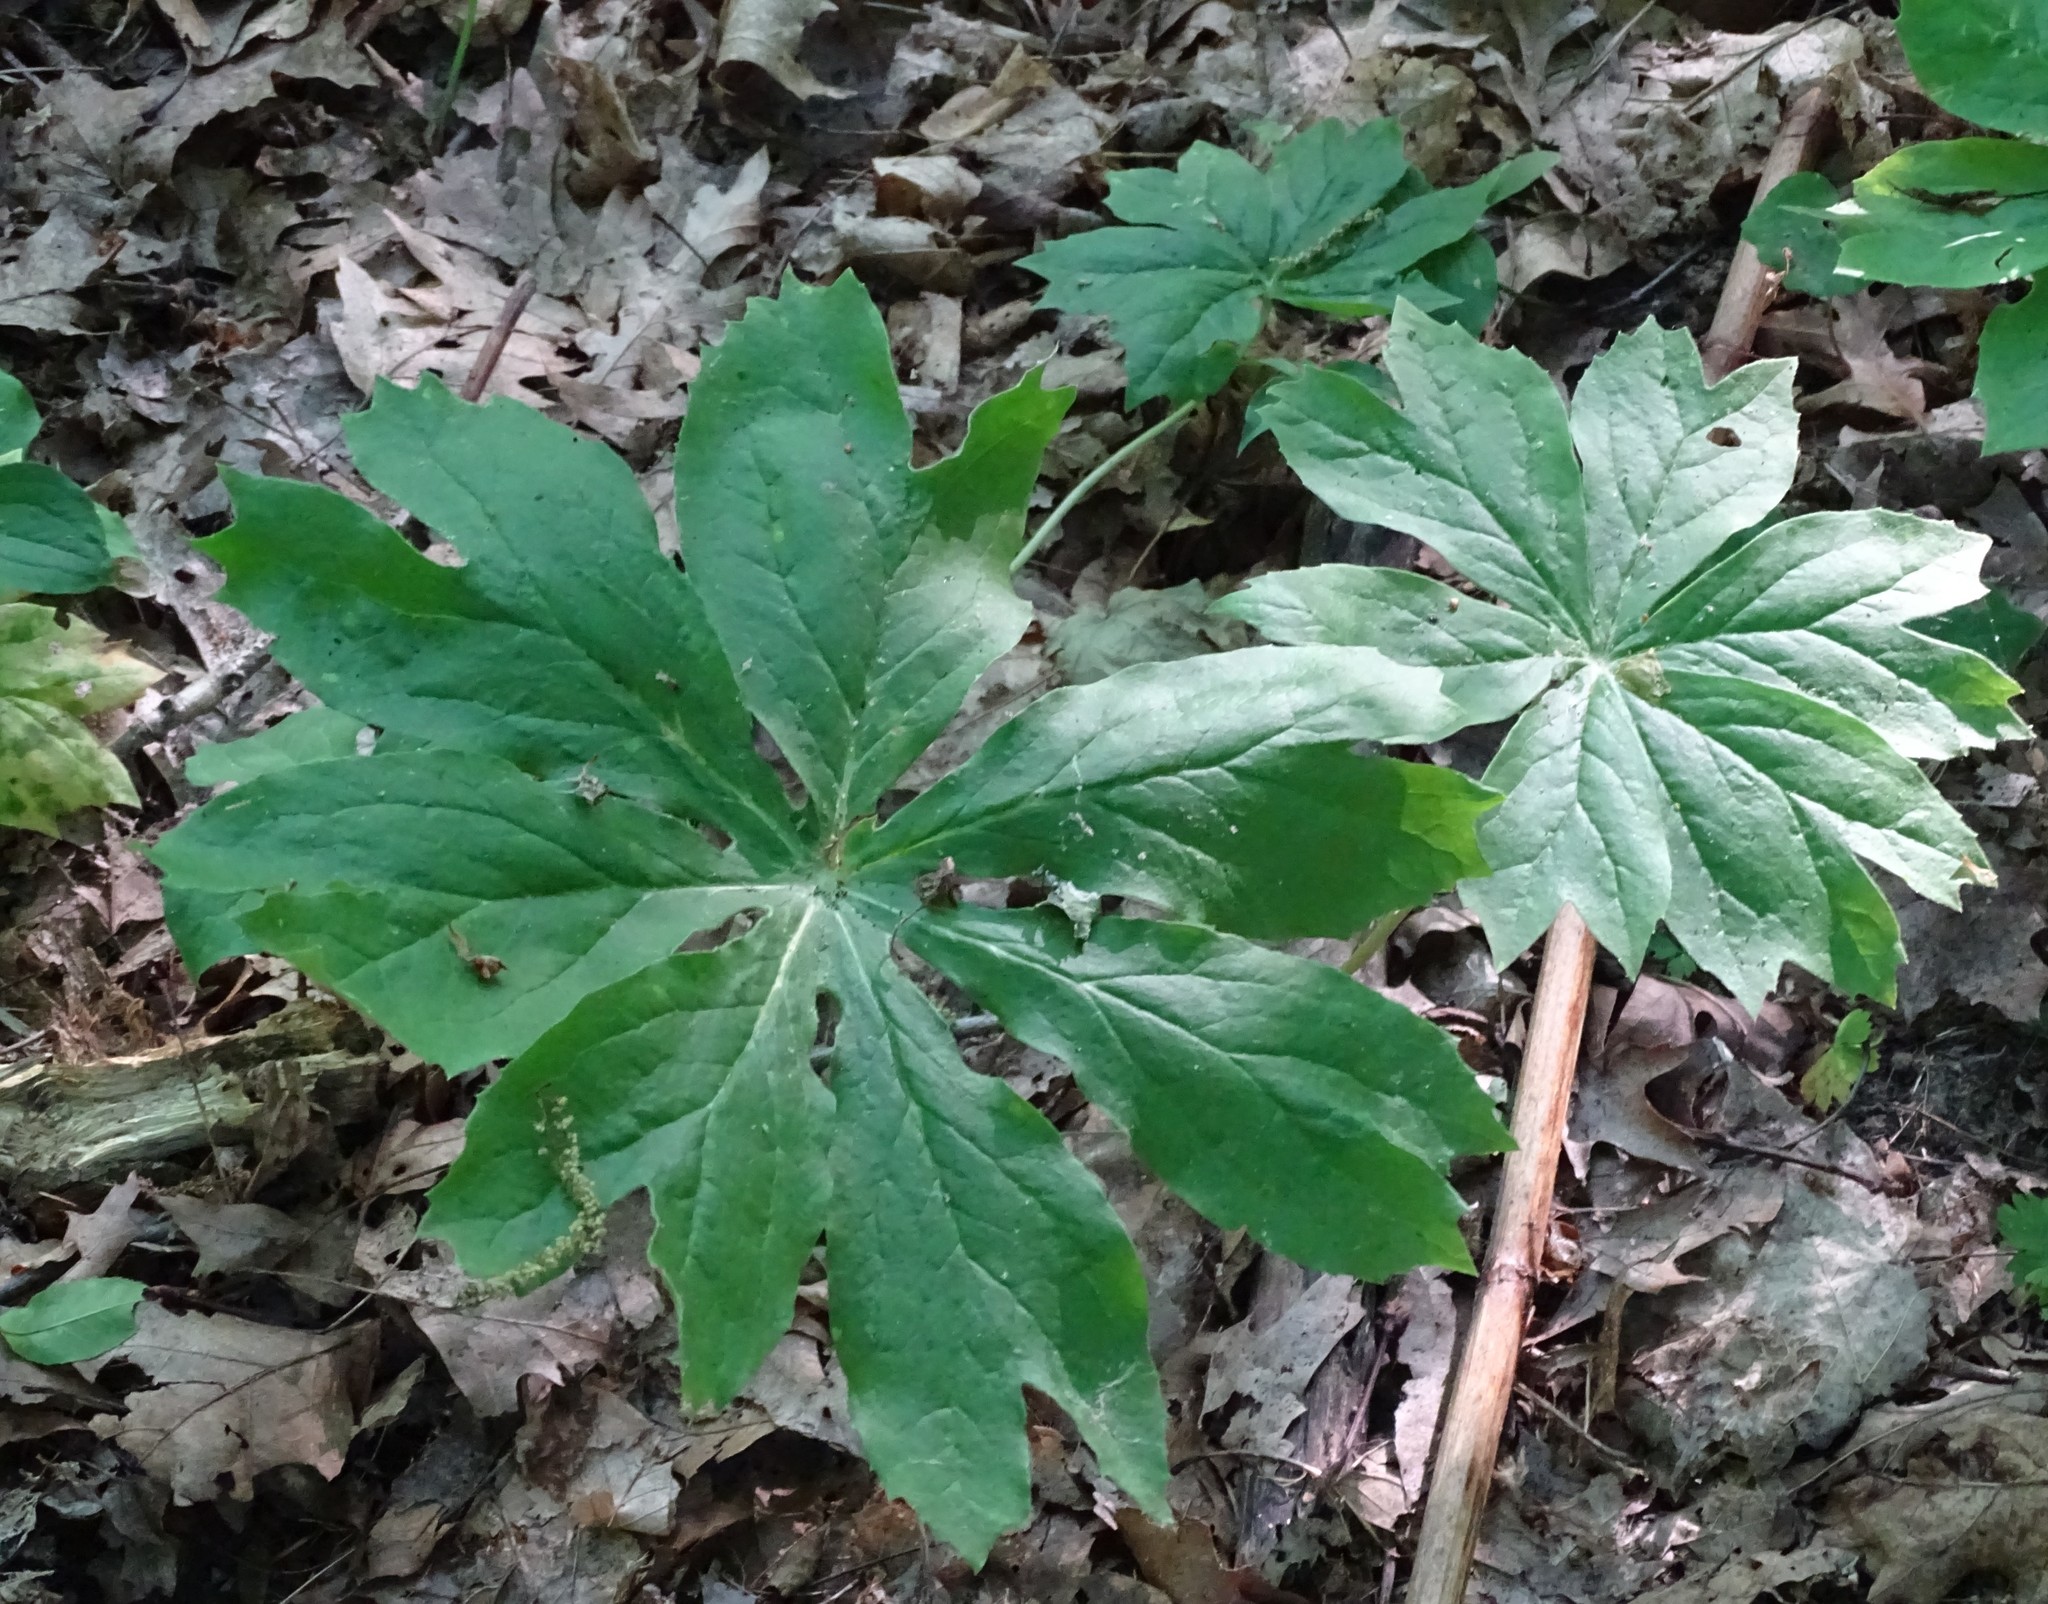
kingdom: Plantae
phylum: Tracheophyta
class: Magnoliopsida
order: Ranunculales
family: Berberidaceae
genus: Podophyllum
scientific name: Podophyllum peltatum
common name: Wild mandrake
